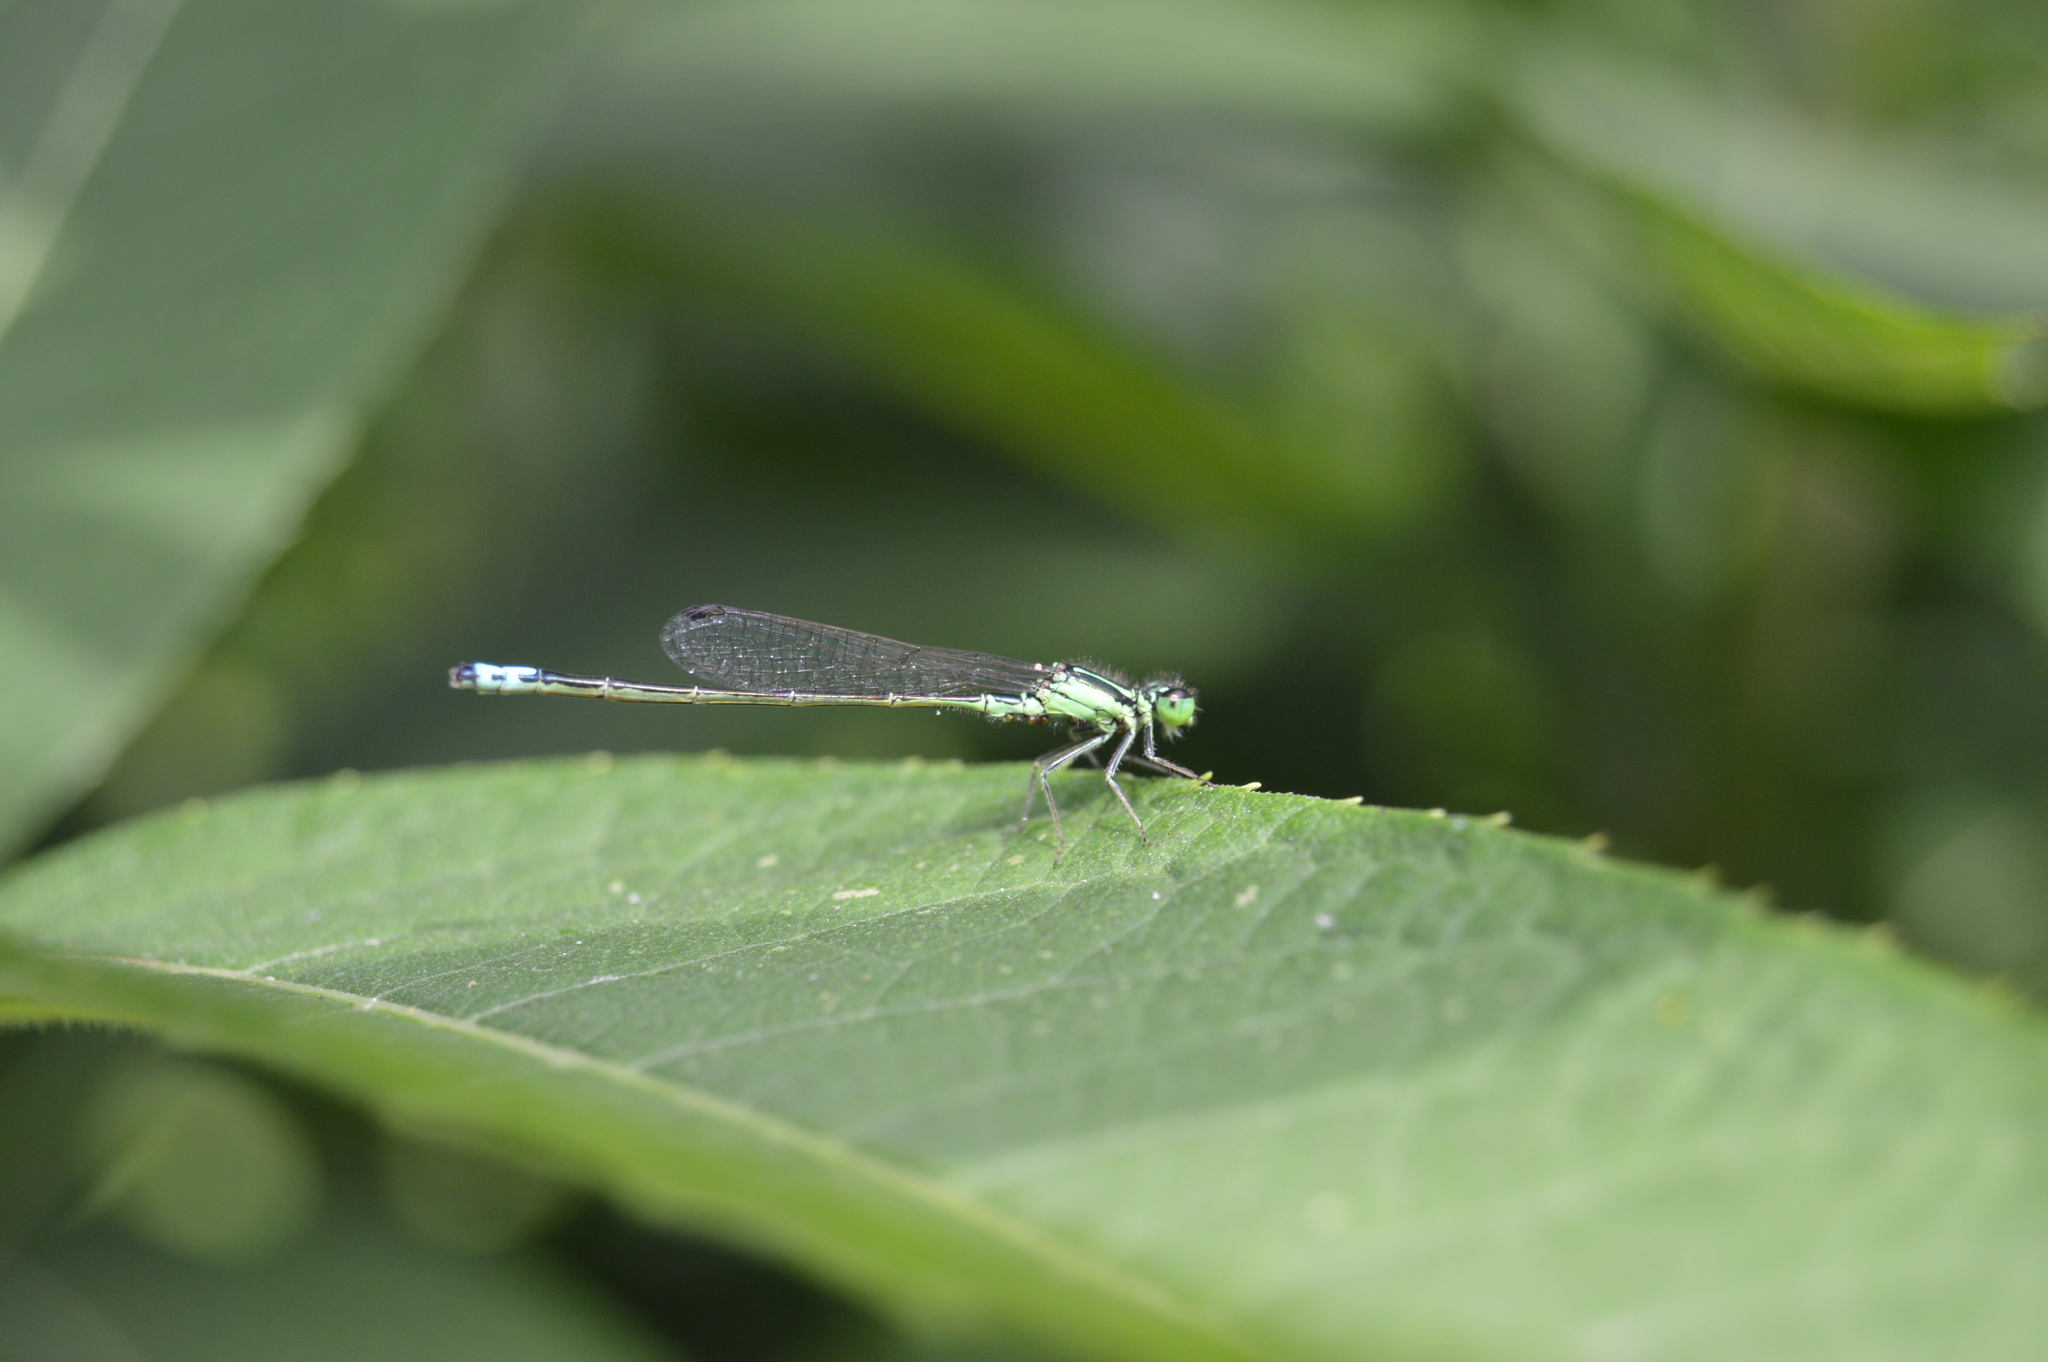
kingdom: Animalia
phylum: Arthropoda
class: Insecta
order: Odonata
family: Coenagrionidae
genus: Ischnura
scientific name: Ischnura verticalis
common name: Eastern forktail
